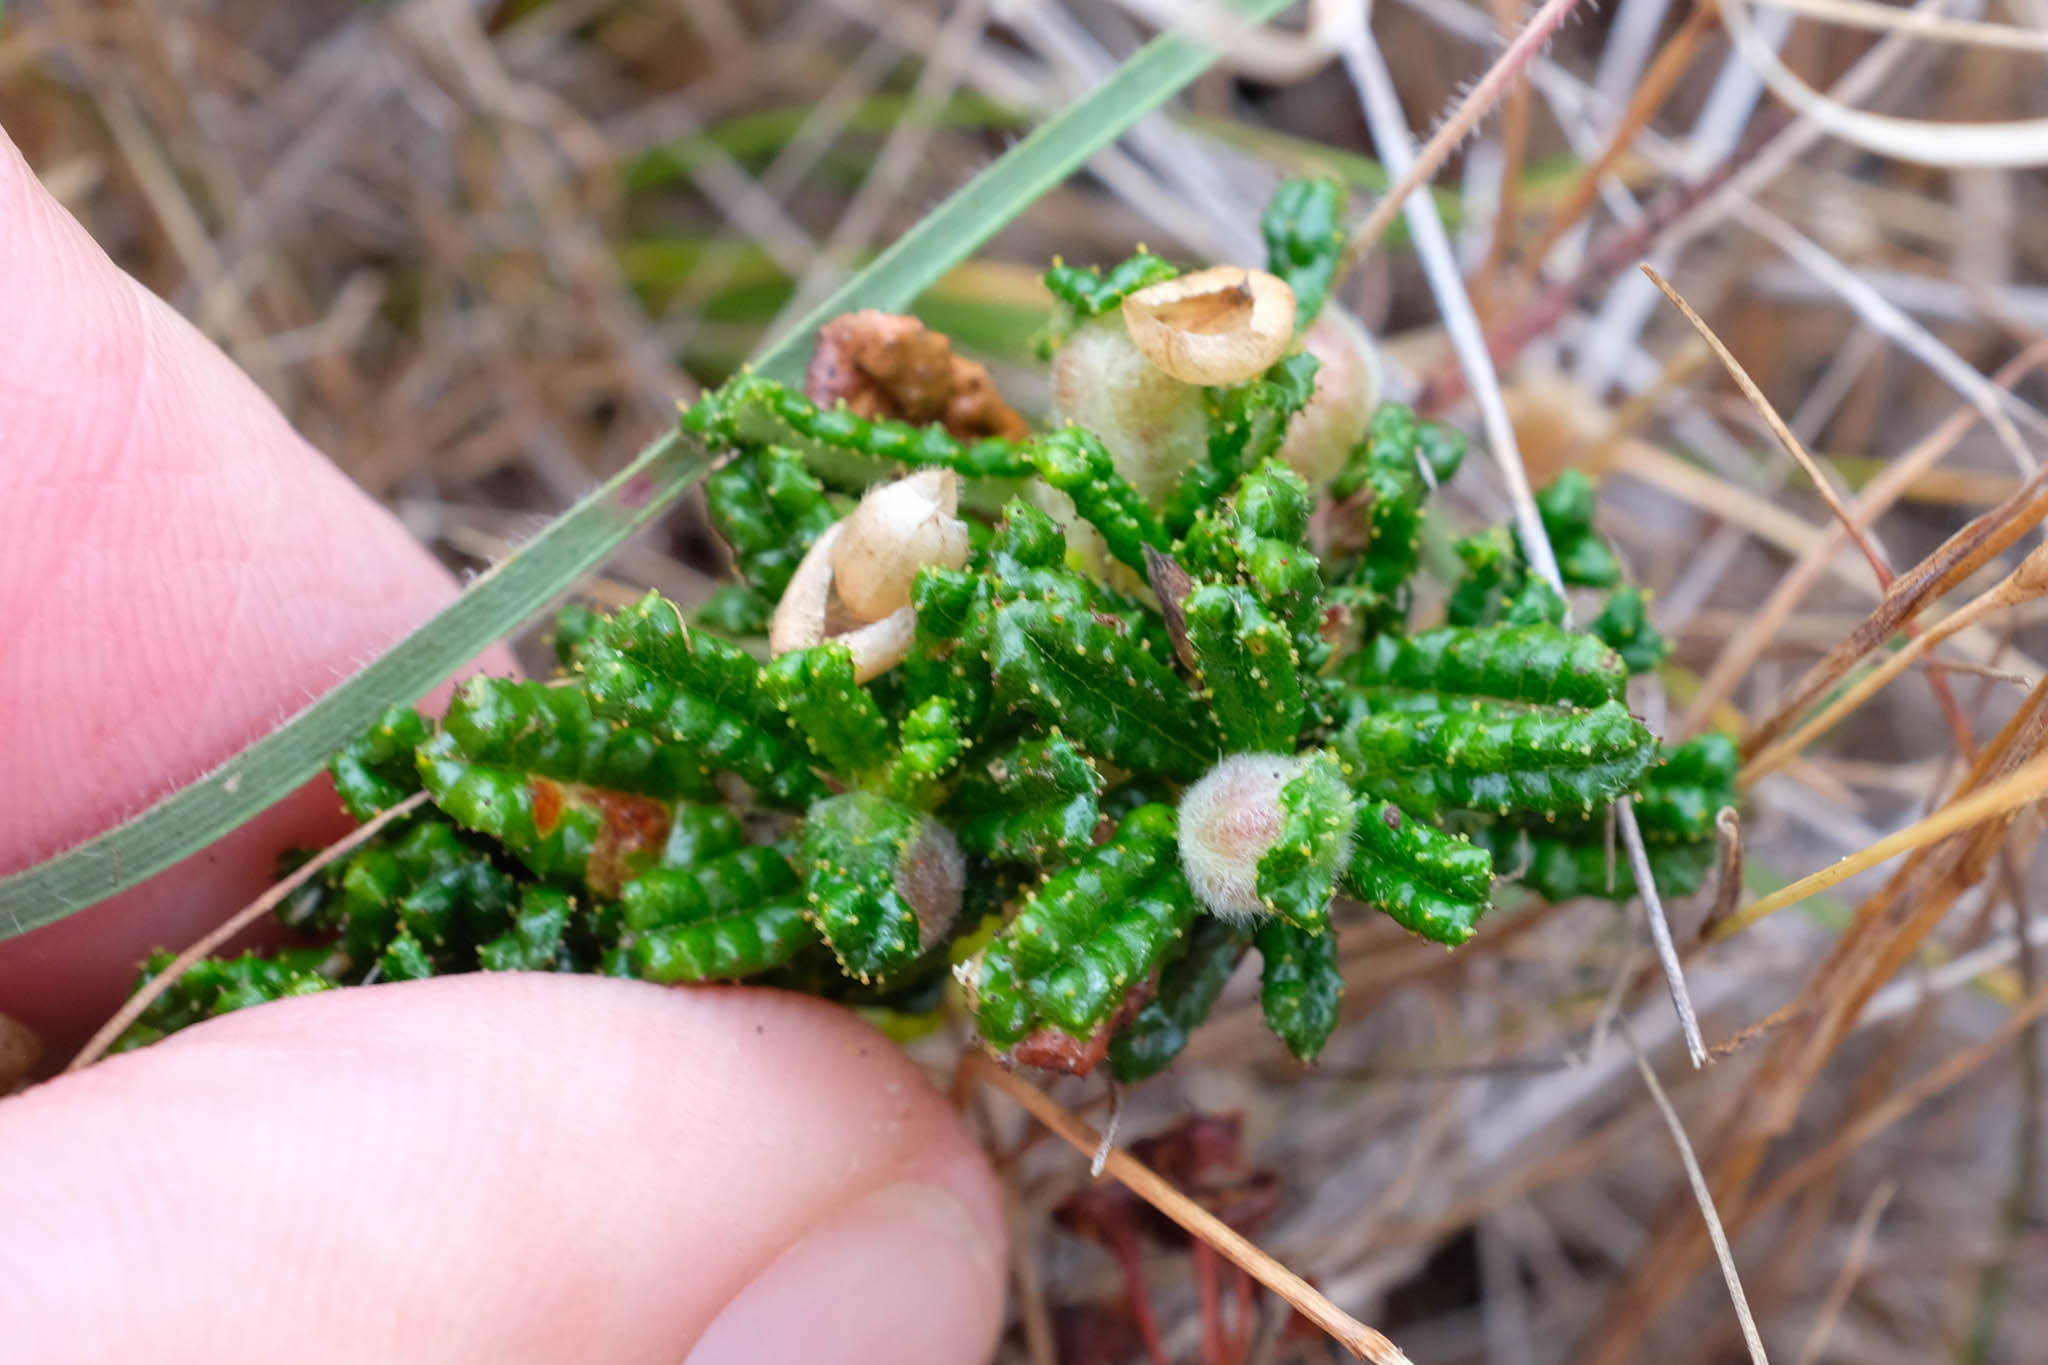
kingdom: Plantae
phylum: Tracheophyta
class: Magnoliopsida
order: Rosales
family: Rhamnaceae
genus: Ceanothus
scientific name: Ceanothus hearstiorum
